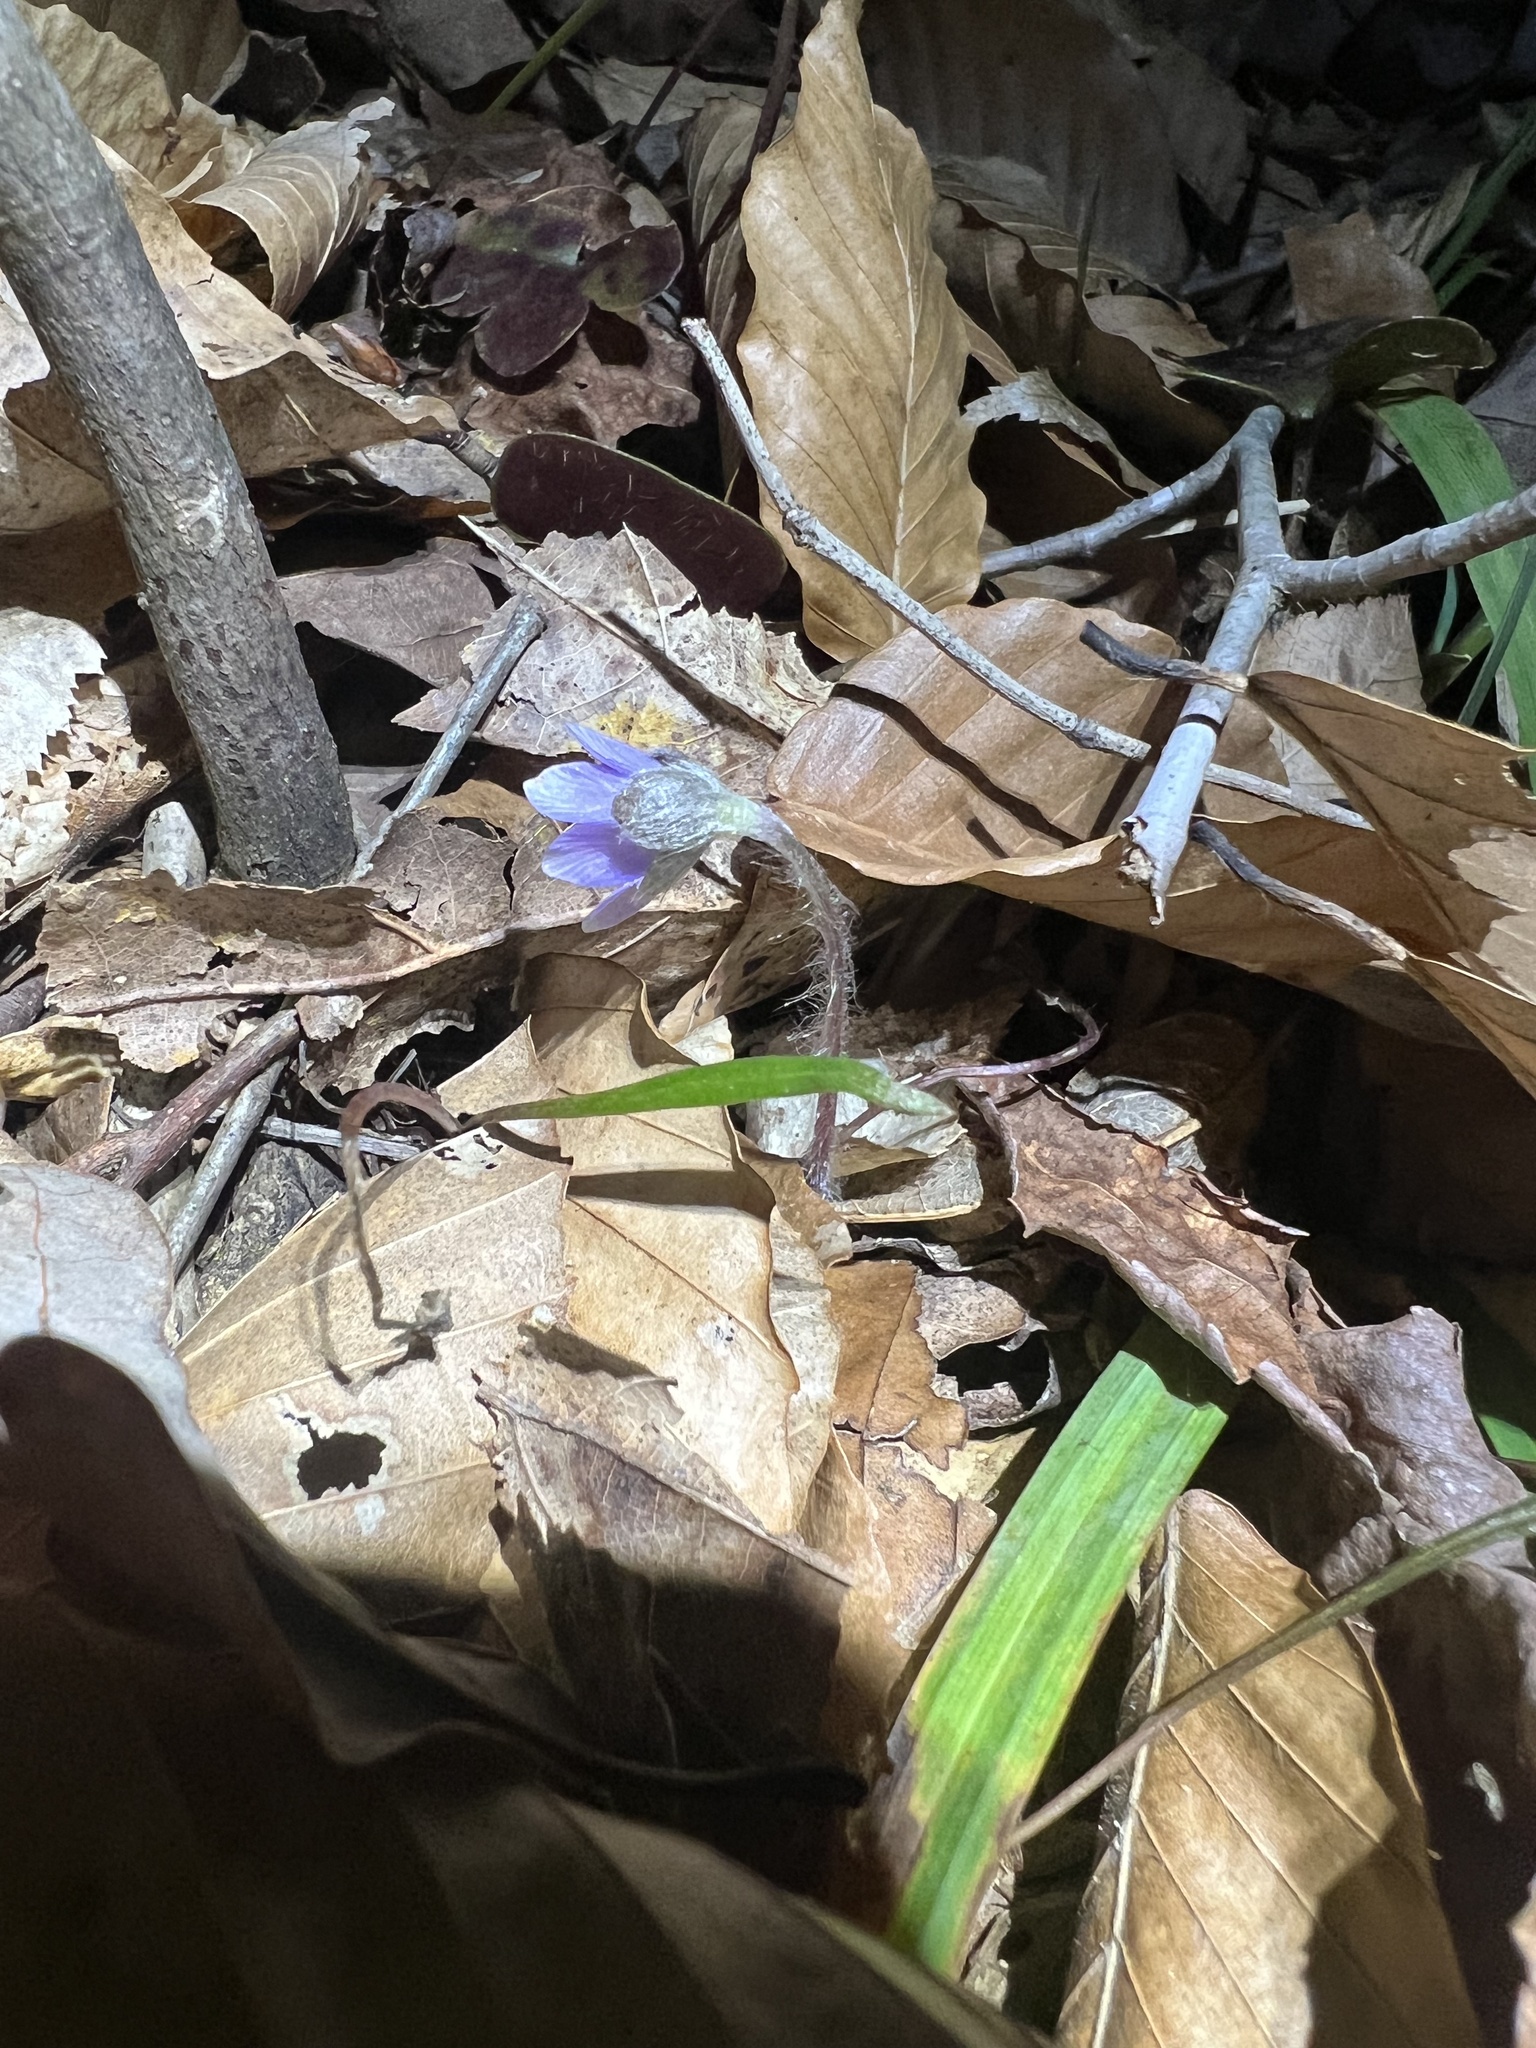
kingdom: Plantae
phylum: Tracheophyta
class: Magnoliopsida
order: Ranunculales
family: Ranunculaceae
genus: Hepatica
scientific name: Hepatica americana
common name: American hepatica
